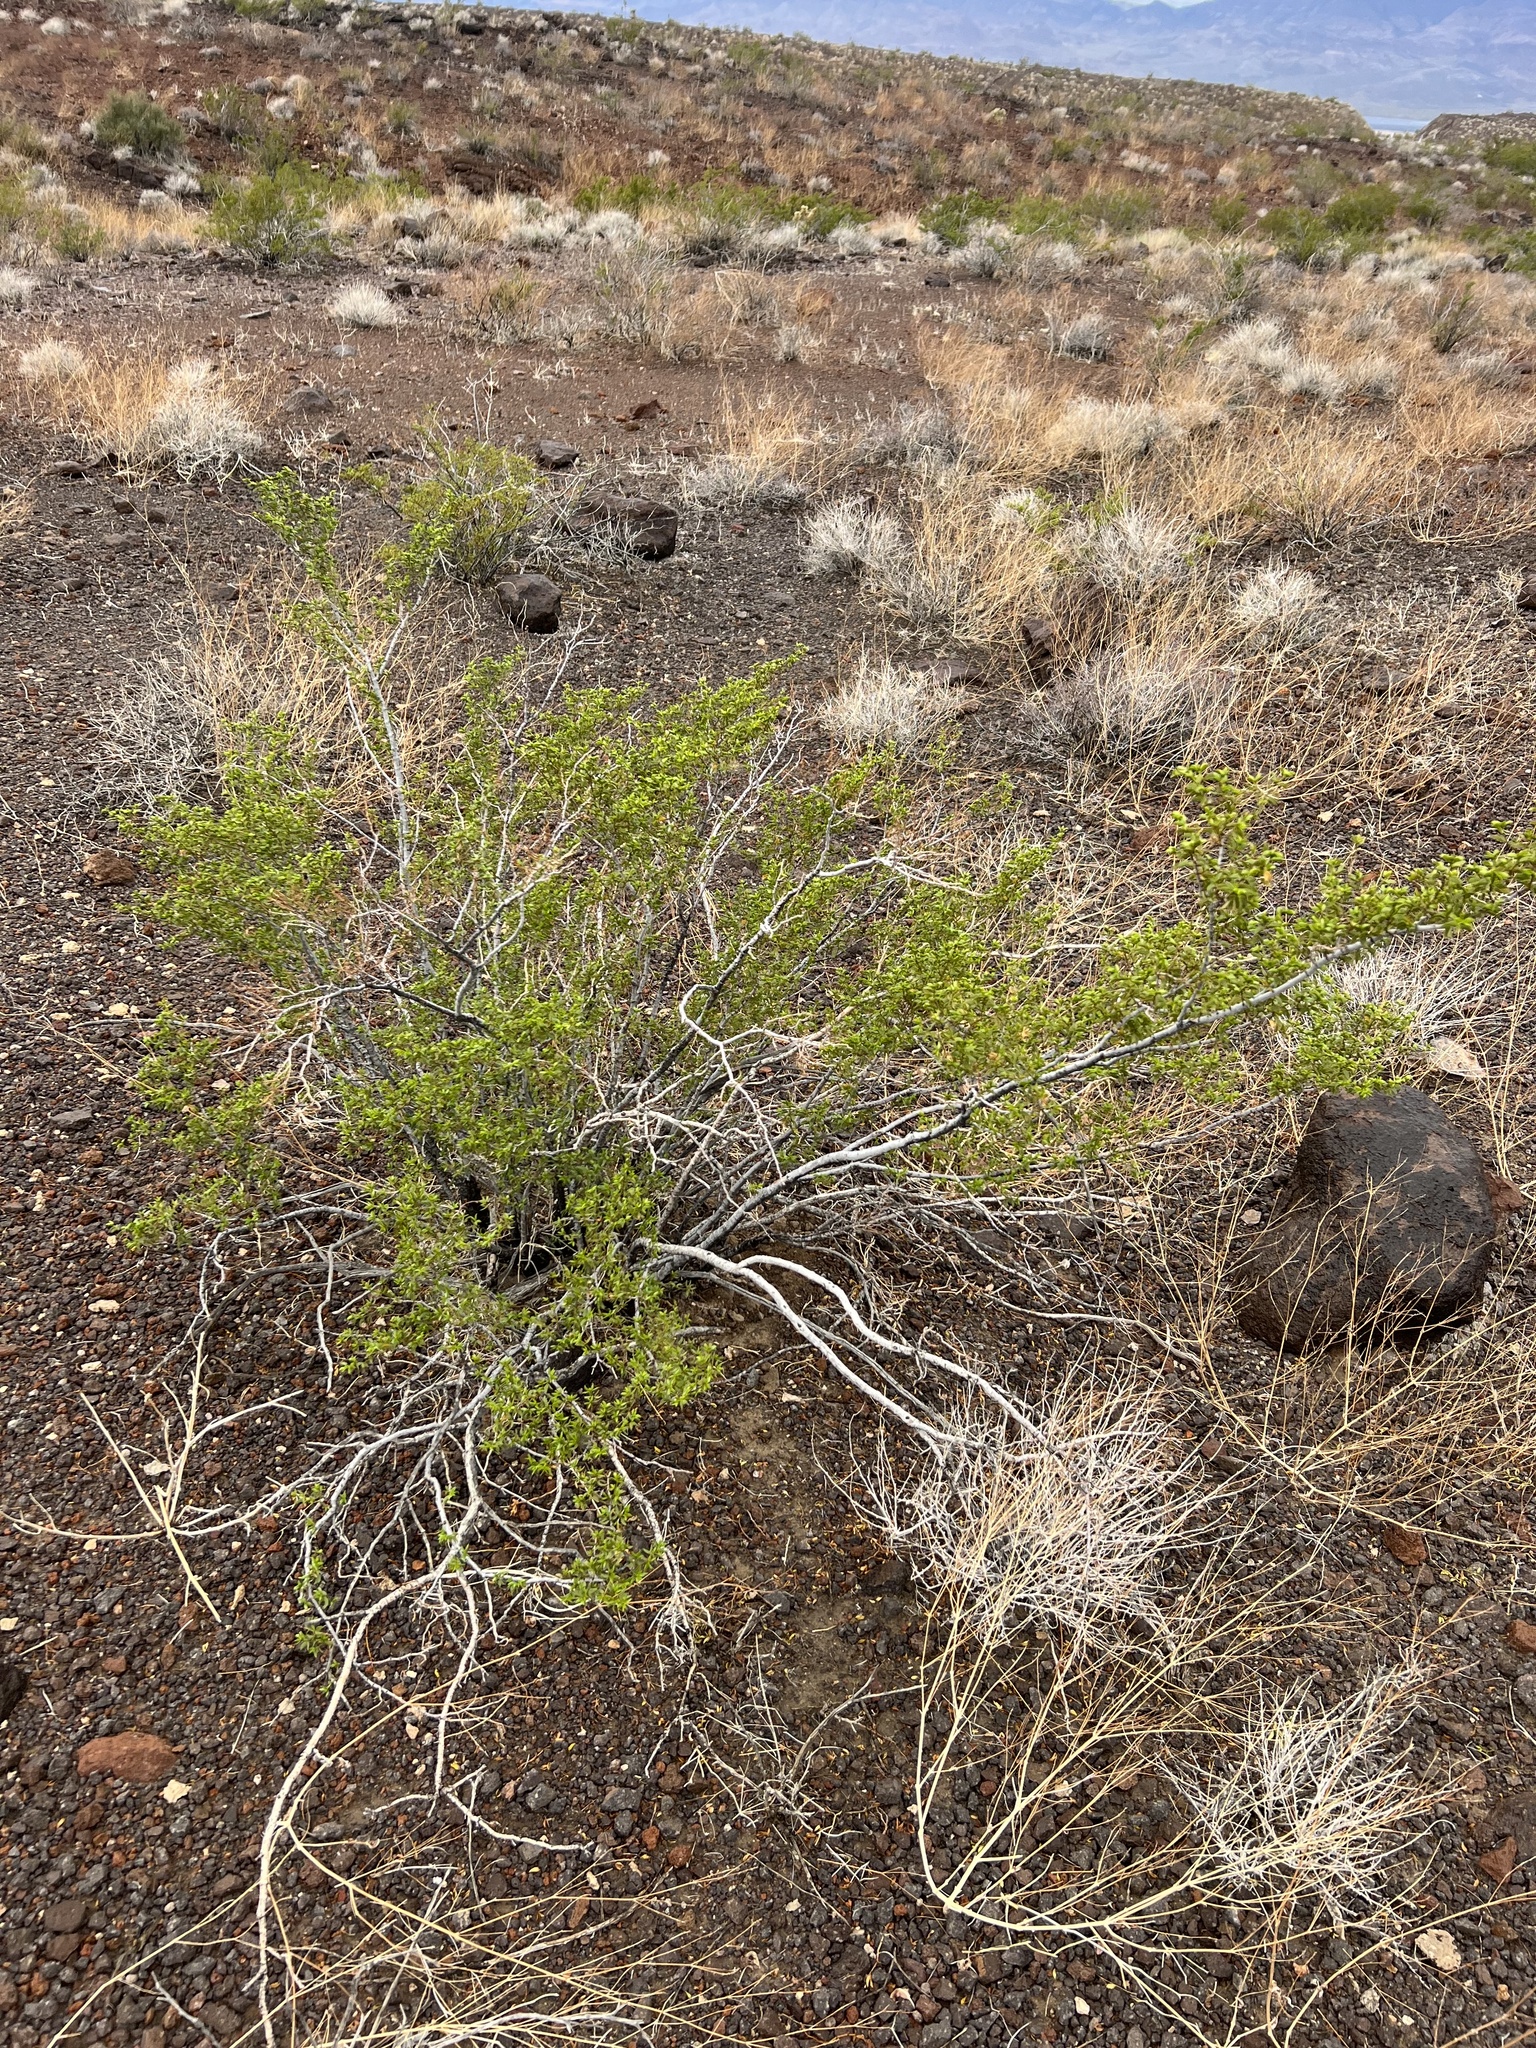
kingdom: Plantae
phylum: Tracheophyta
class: Magnoliopsida
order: Zygophyllales
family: Zygophyllaceae
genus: Larrea
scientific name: Larrea tridentata
